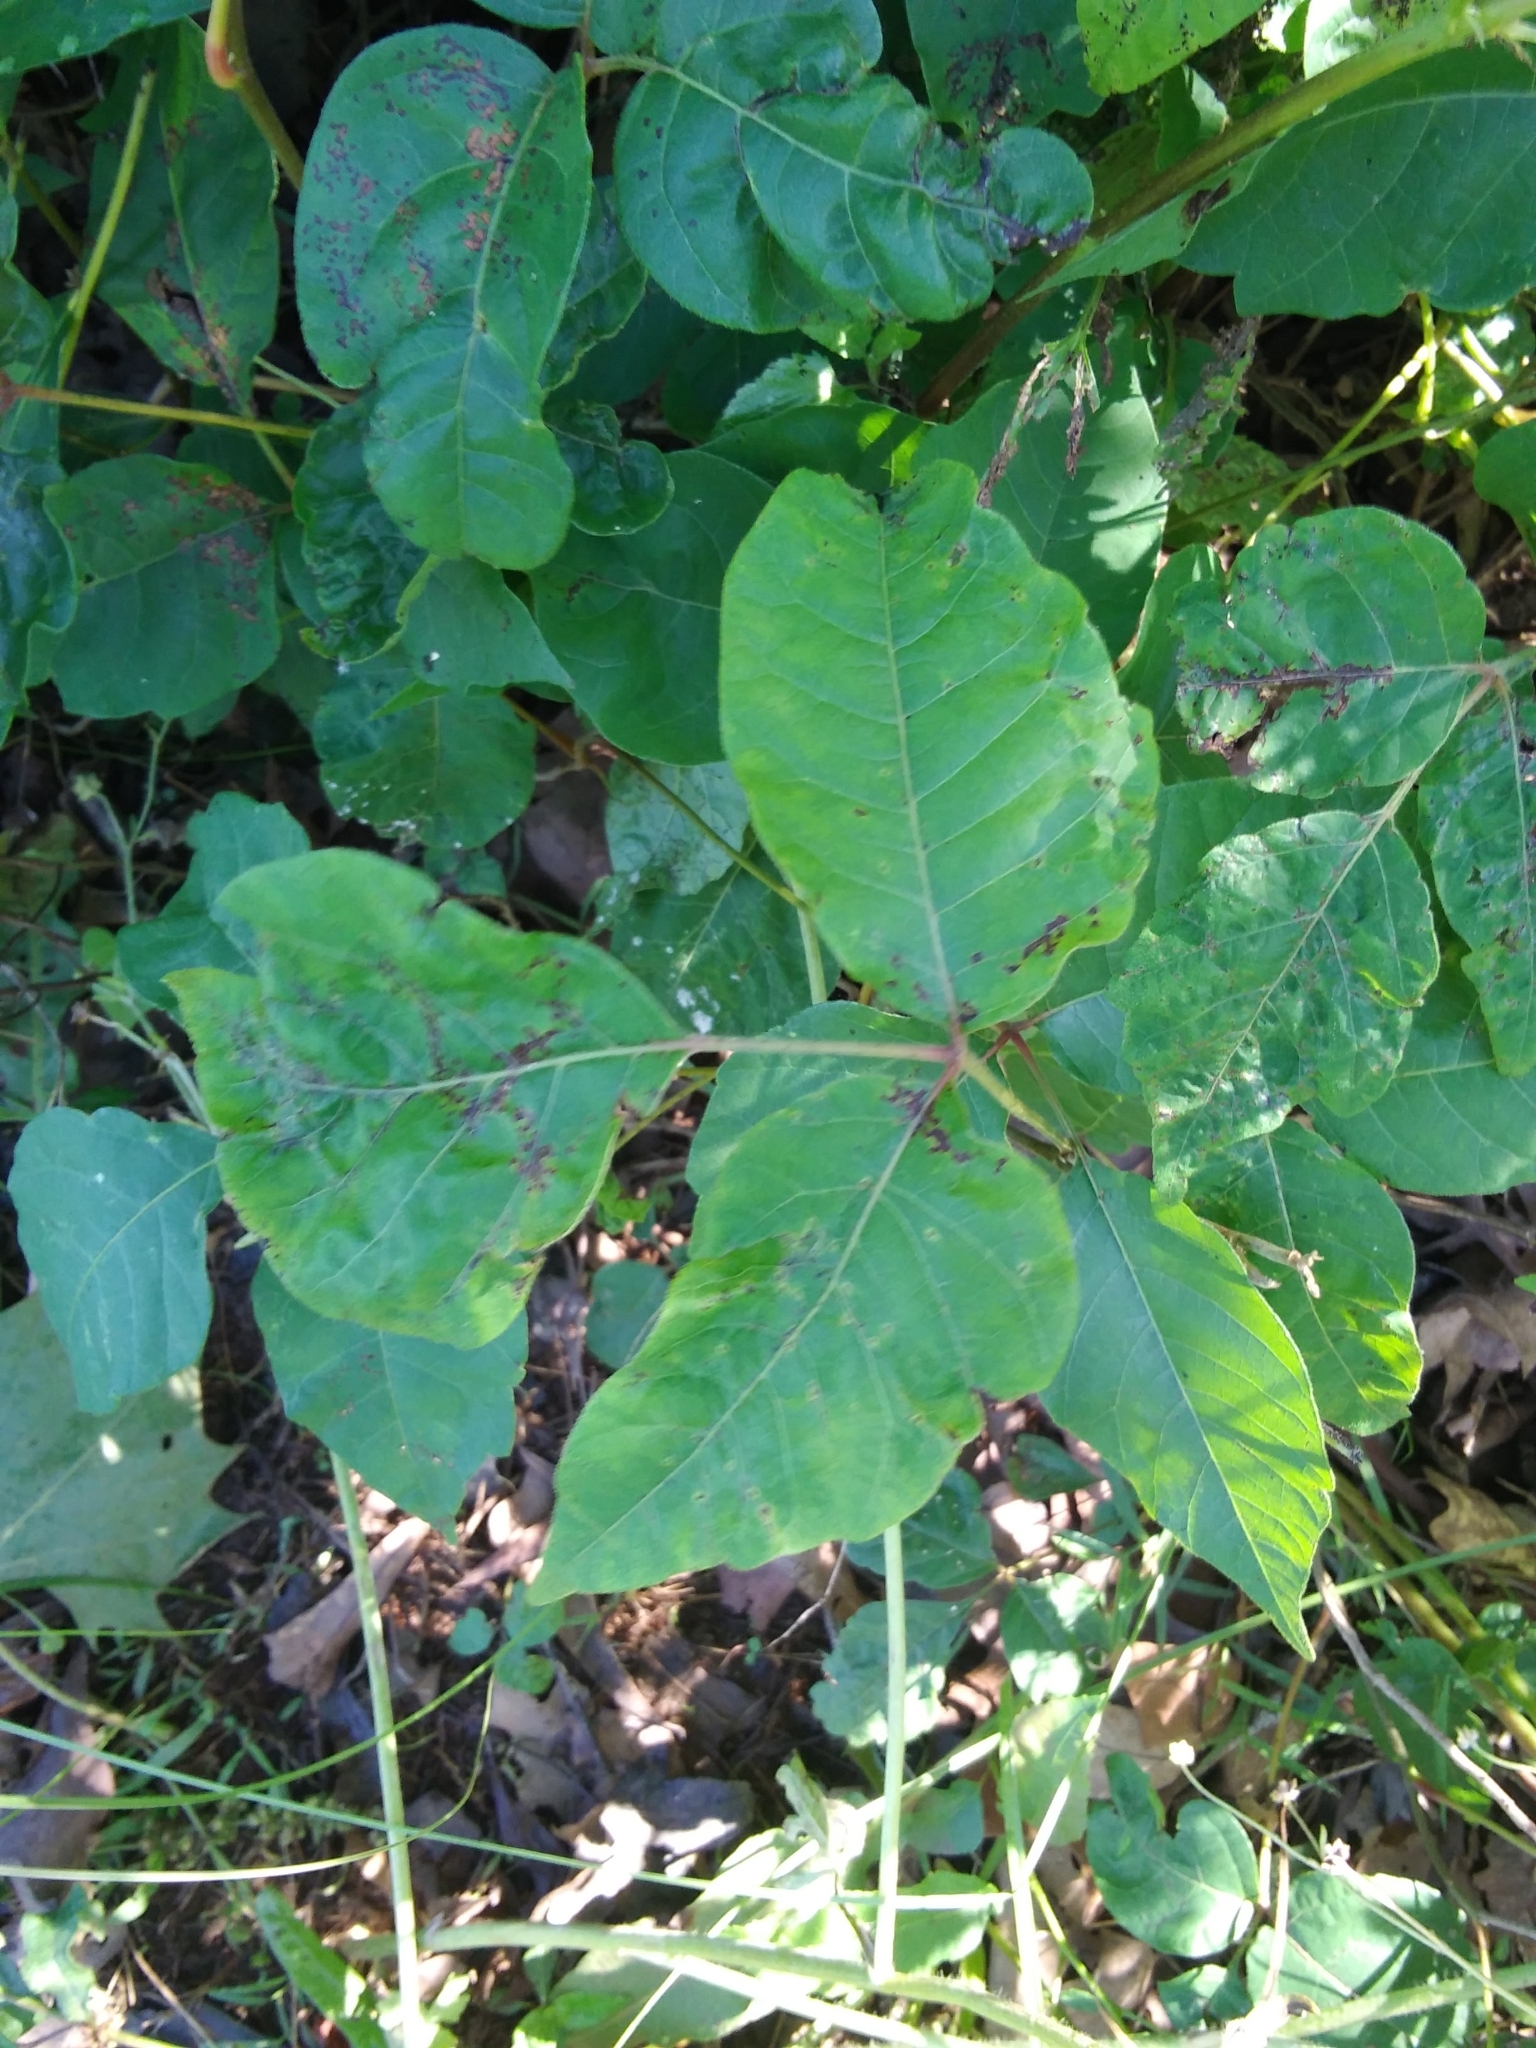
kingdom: Plantae
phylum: Tracheophyta
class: Magnoliopsida
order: Sapindales
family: Anacardiaceae
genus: Toxicodendron
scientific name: Toxicodendron radicans
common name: Poison ivy
